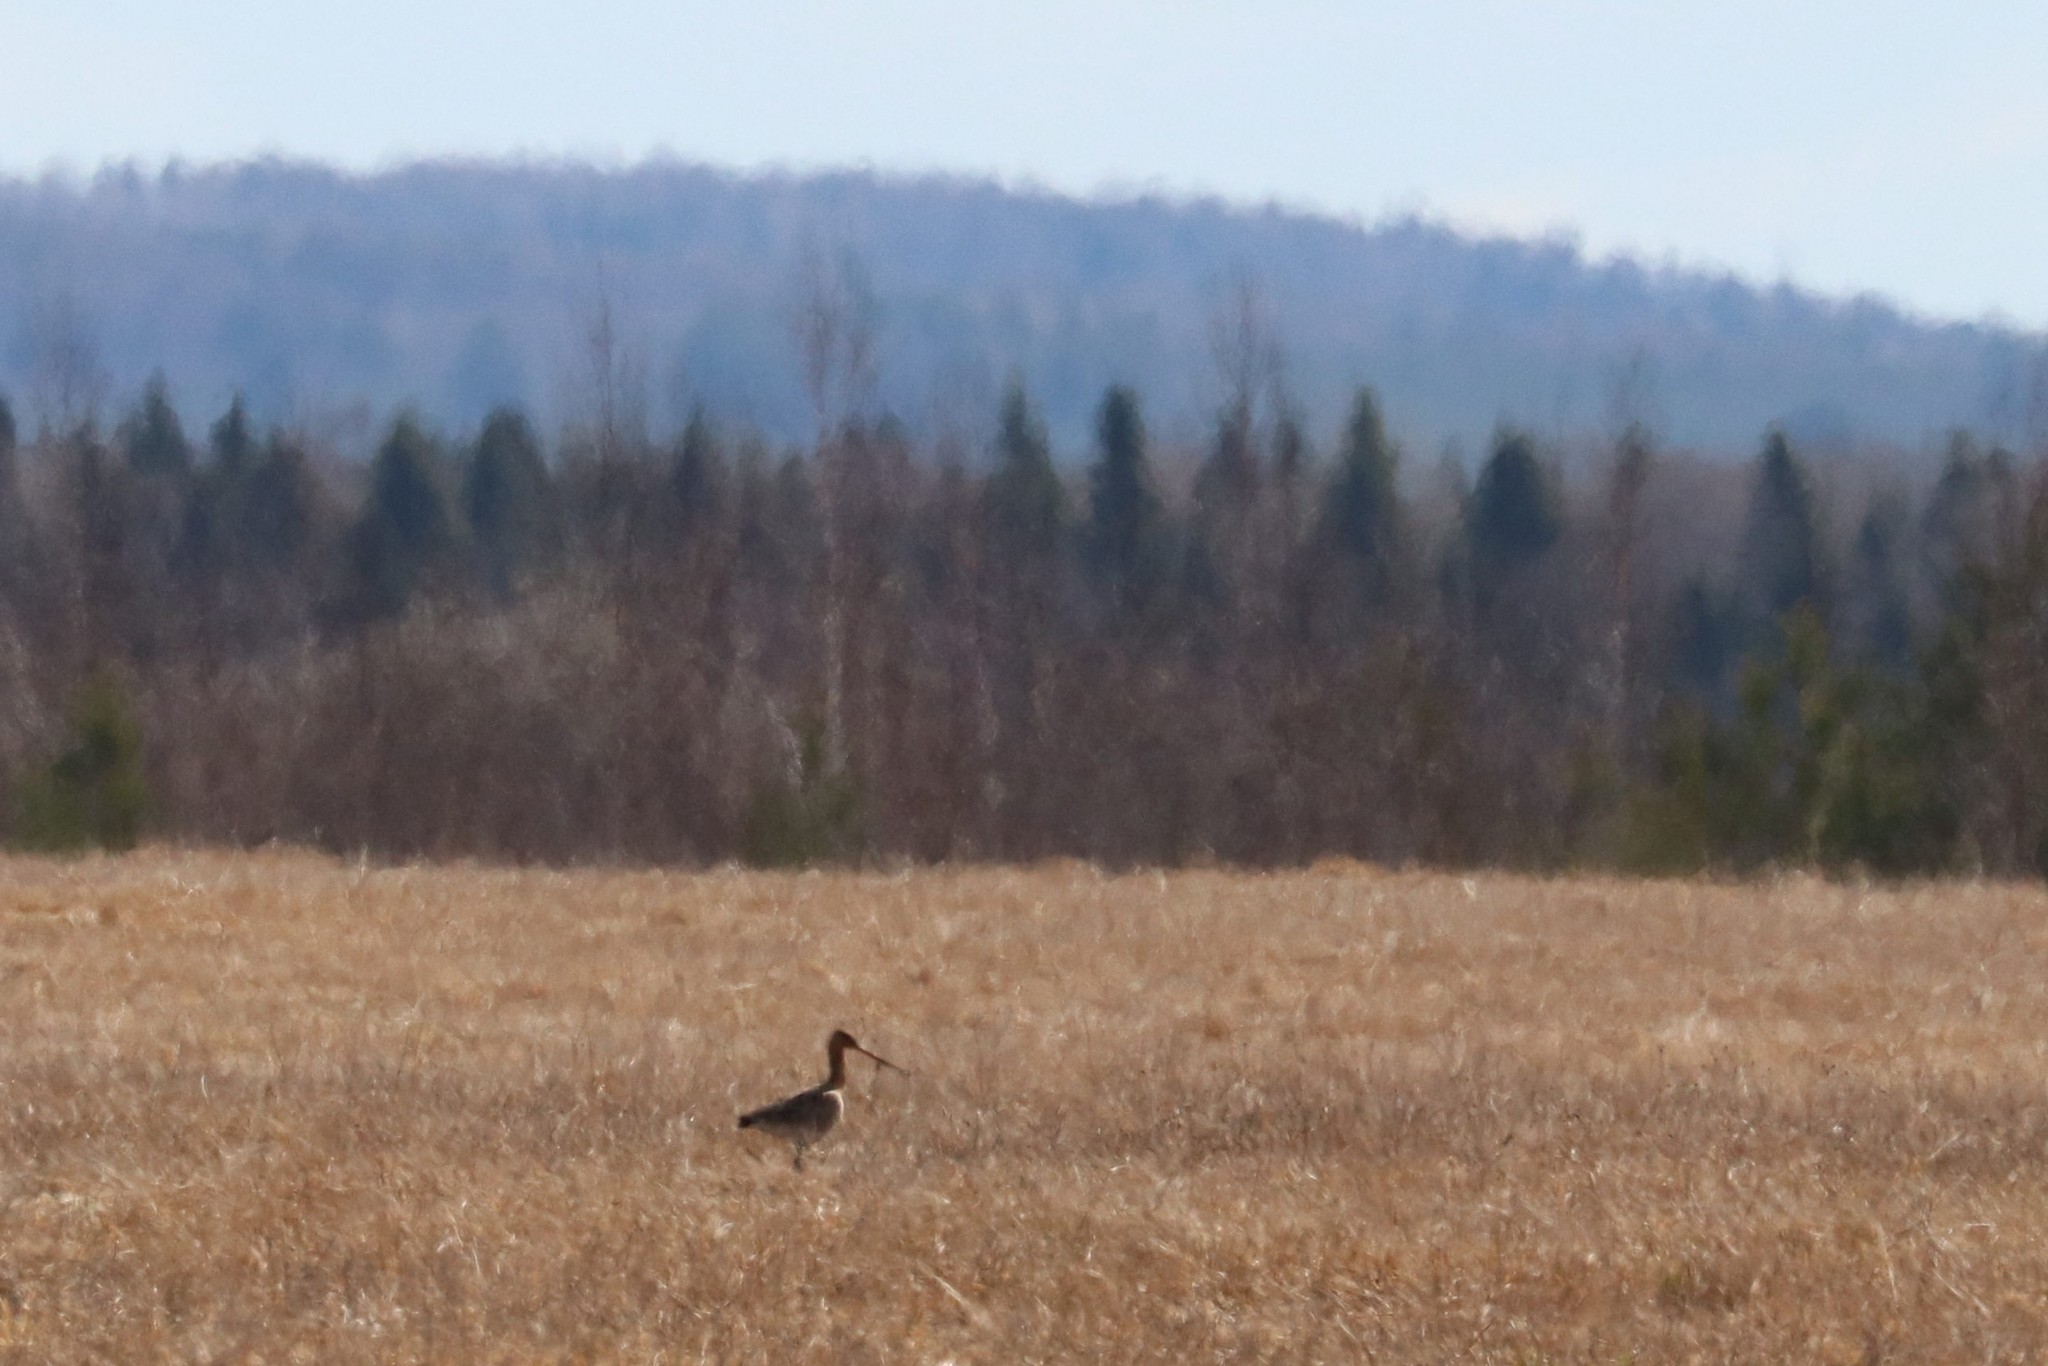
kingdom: Animalia
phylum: Chordata
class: Aves
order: Charadriiformes
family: Scolopacidae
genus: Limosa
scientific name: Limosa limosa
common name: Black-tailed godwit
